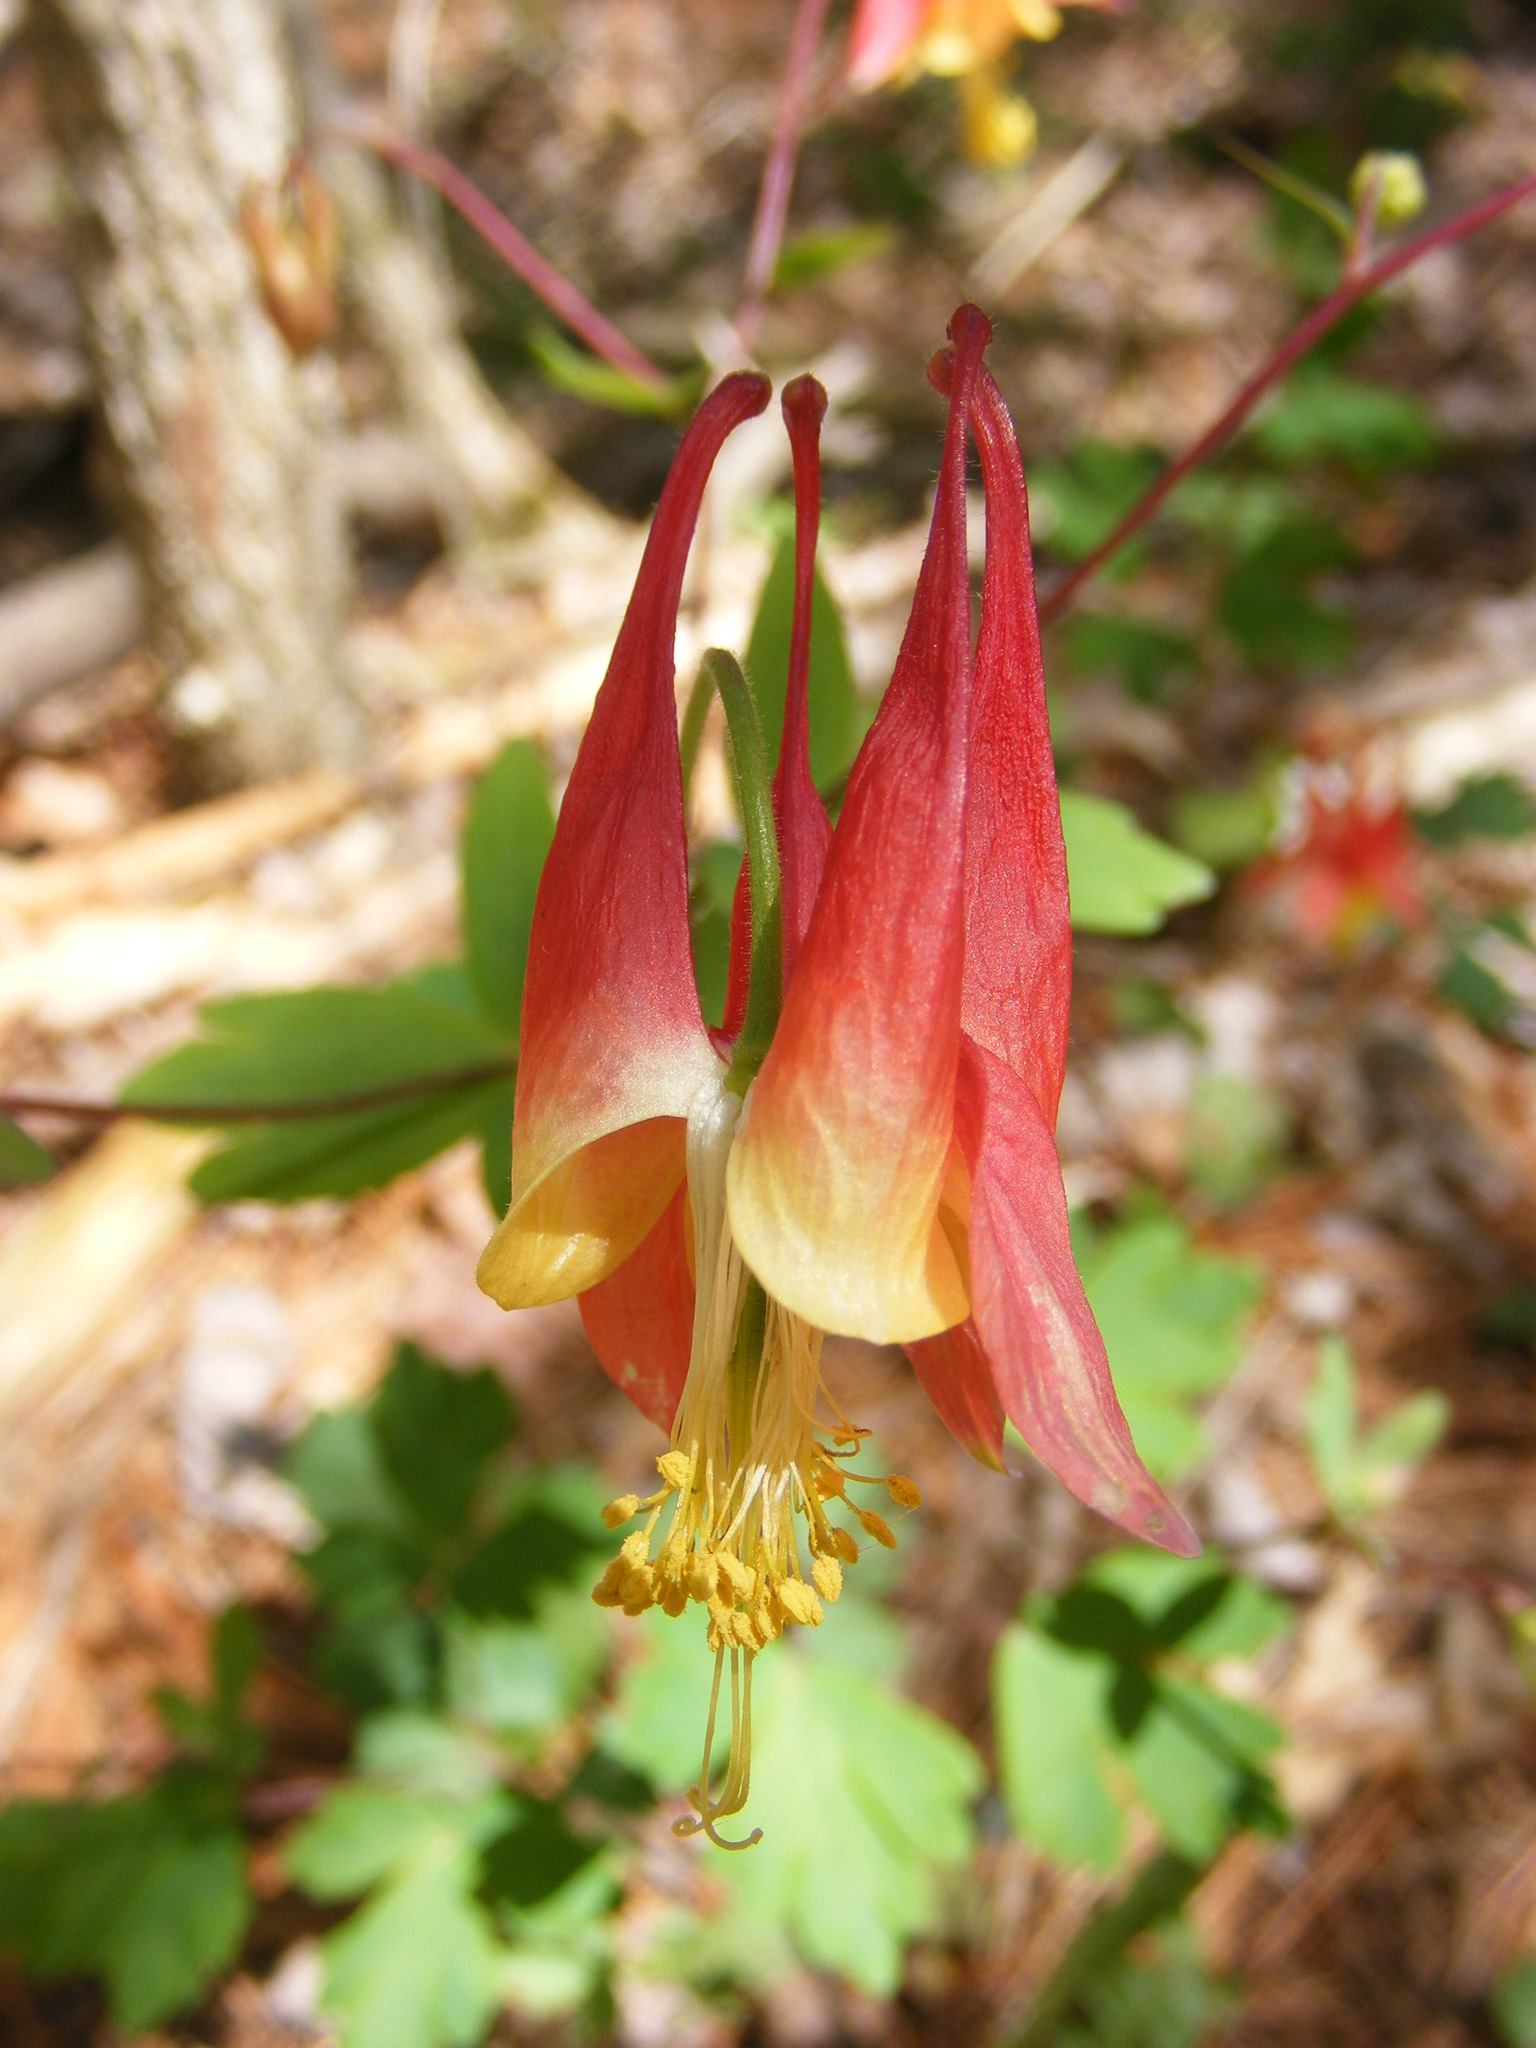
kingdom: Plantae
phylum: Tracheophyta
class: Magnoliopsida
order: Ranunculales
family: Ranunculaceae
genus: Aquilegia
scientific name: Aquilegia canadensis
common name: American columbine
